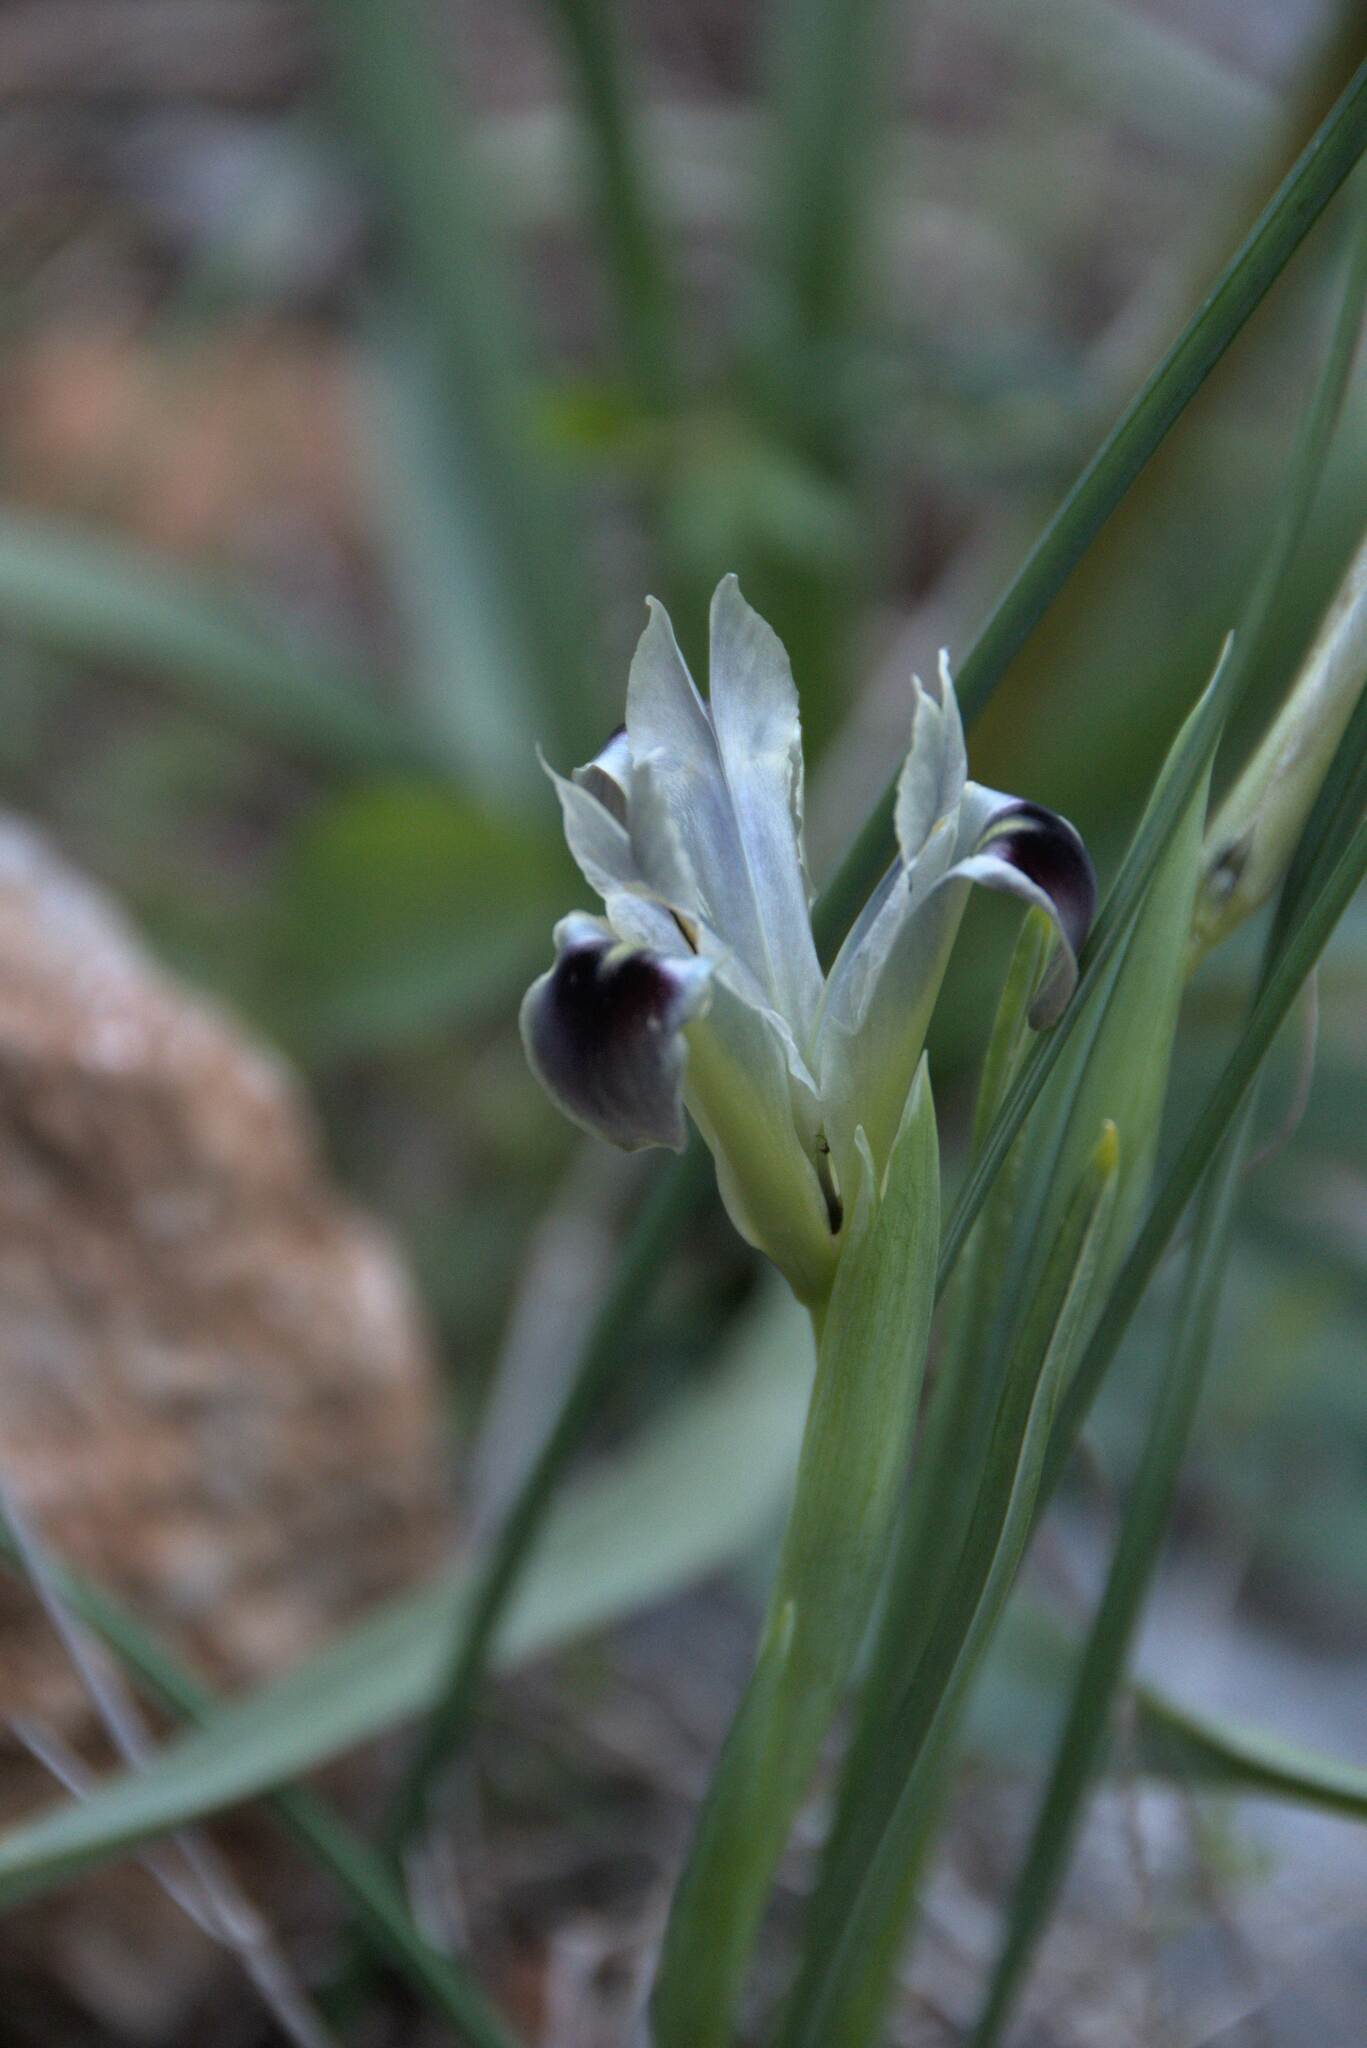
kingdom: Plantae
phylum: Tracheophyta
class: Liliopsida
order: Asparagales
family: Iridaceae
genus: Iris
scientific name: Iris tuberosa
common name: Snake's-head iris
